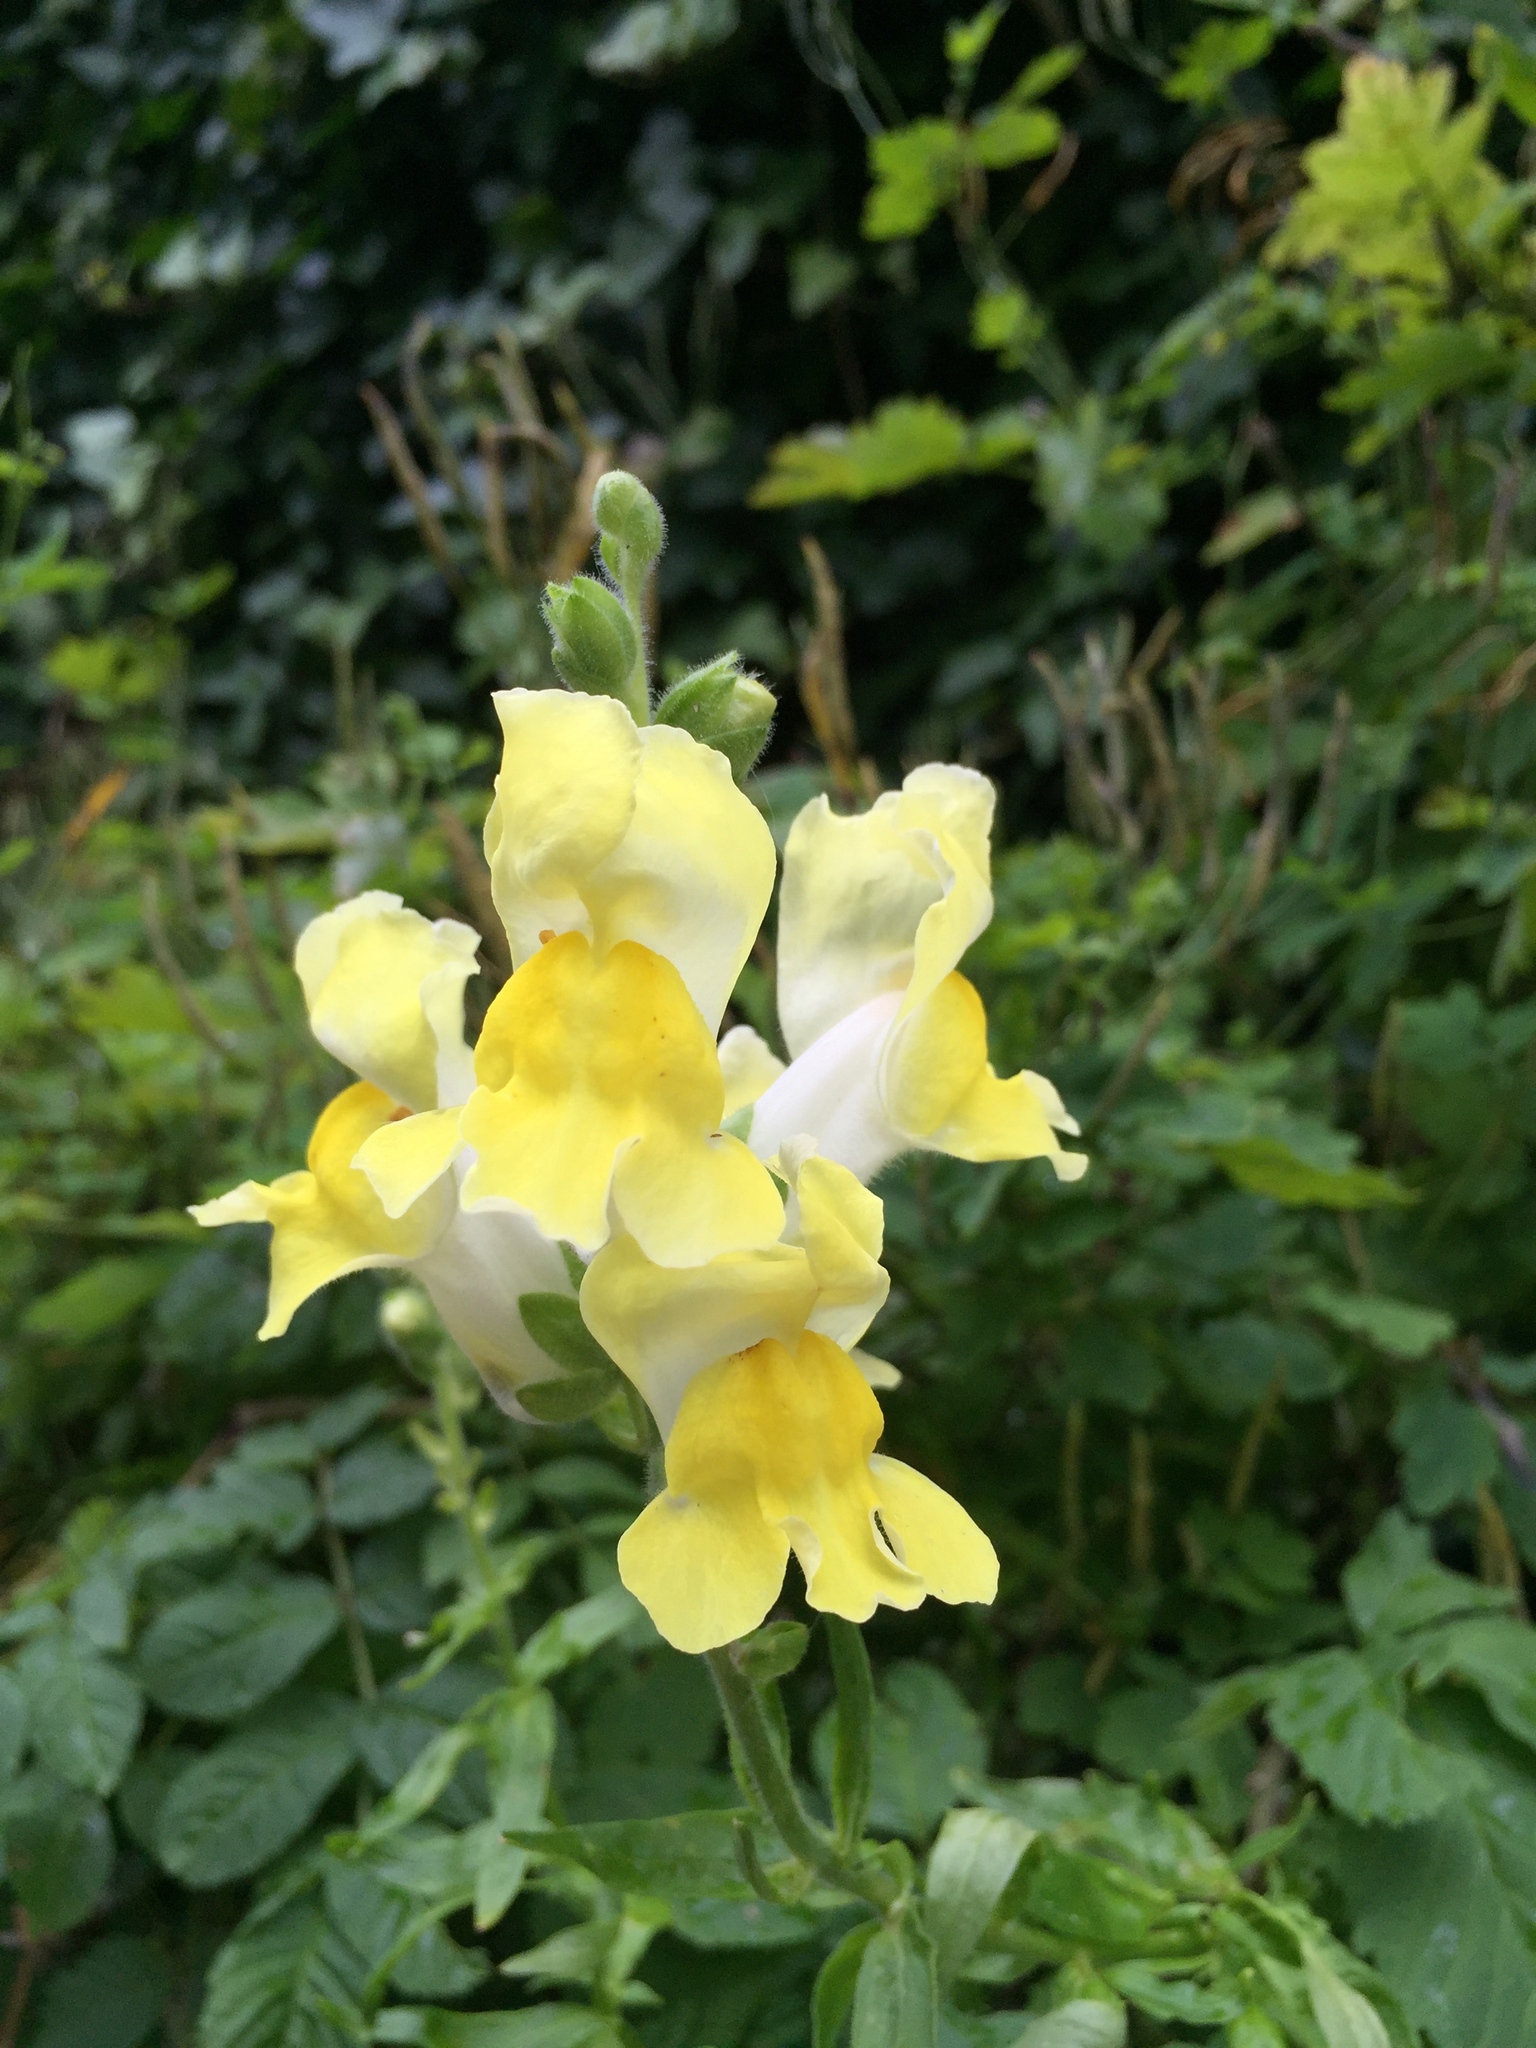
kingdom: Plantae
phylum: Tracheophyta
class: Magnoliopsida
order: Lamiales
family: Plantaginaceae
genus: Antirrhinum
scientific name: Antirrhinum majus
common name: Snapdragon
